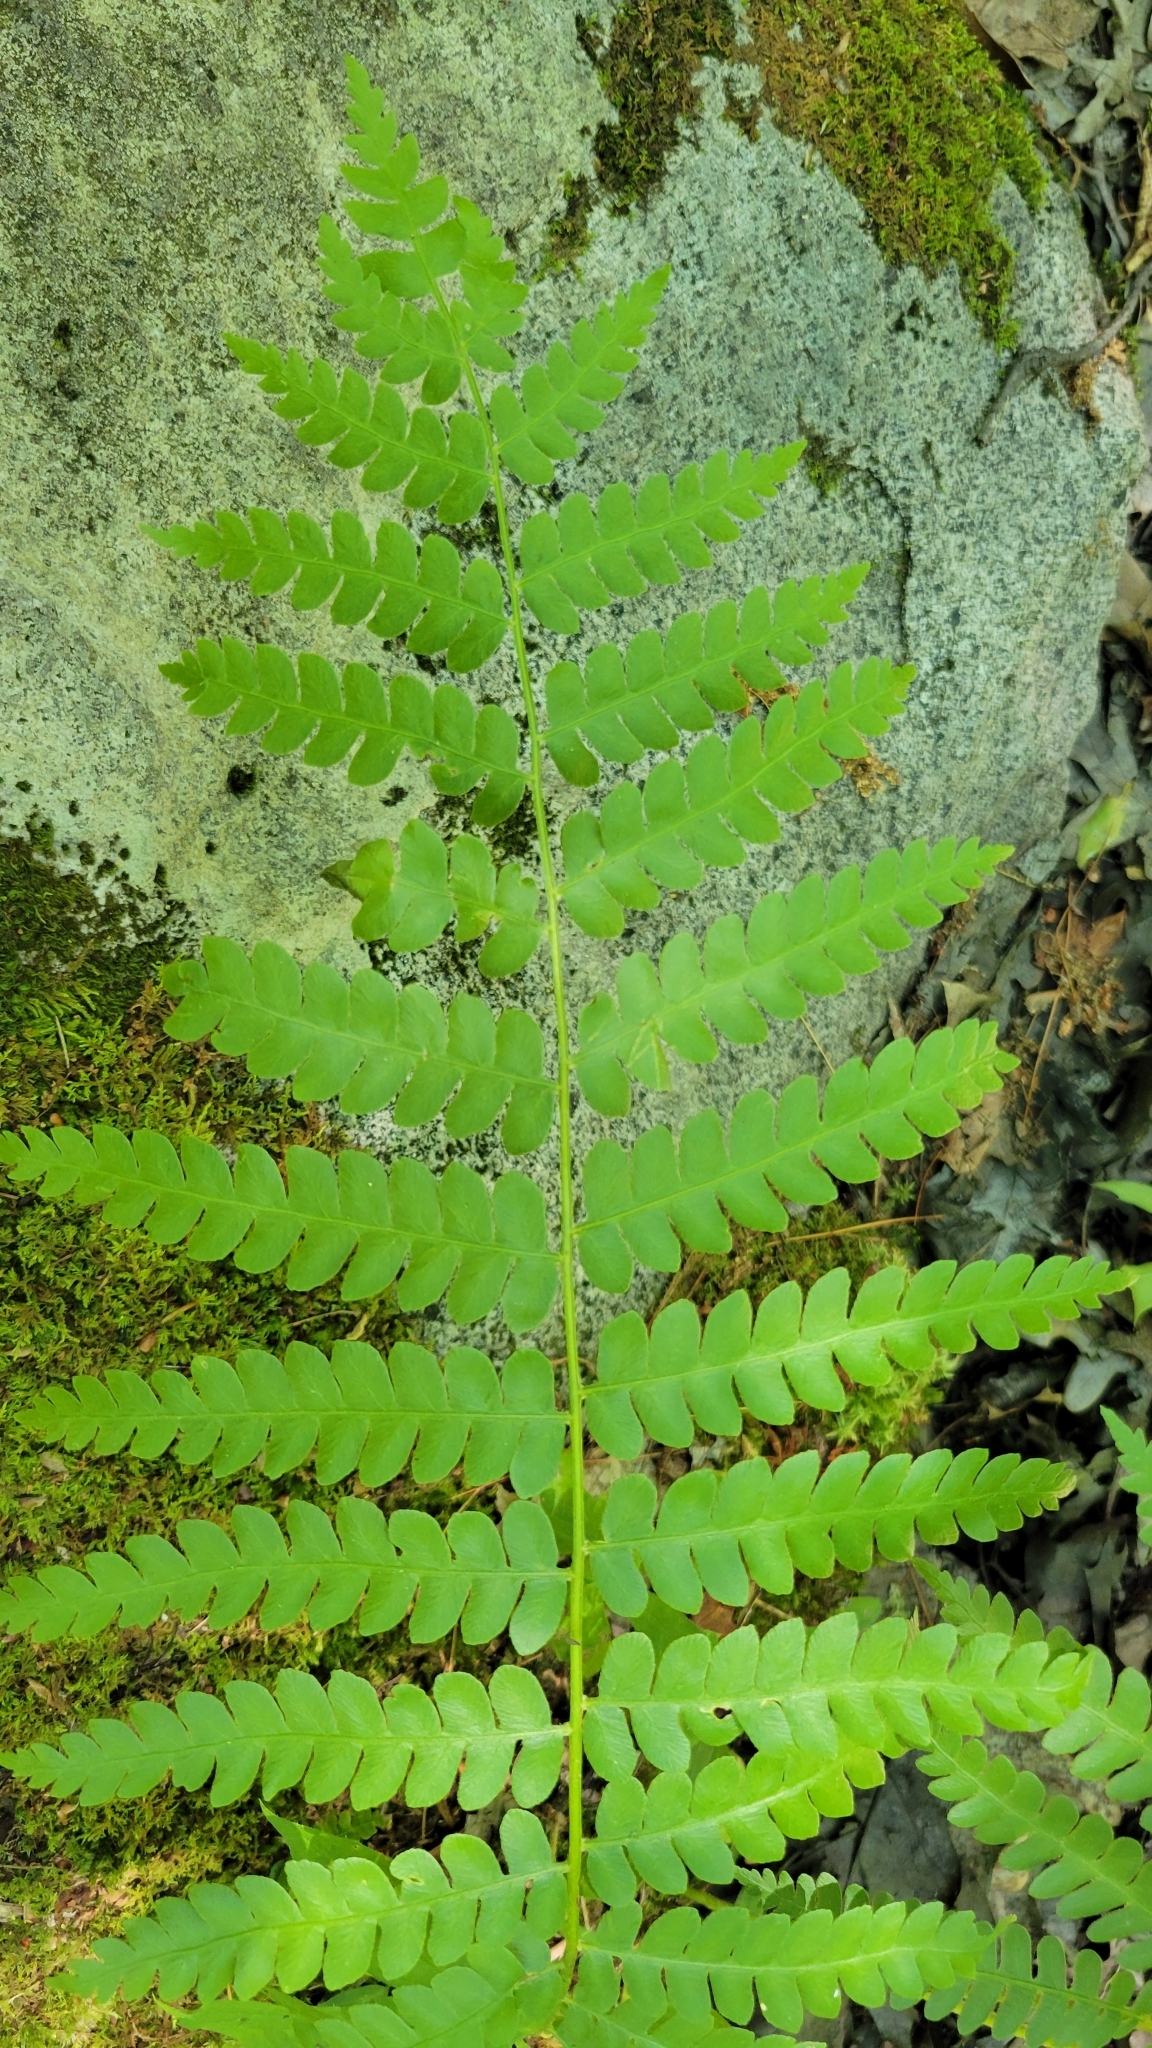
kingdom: Plantae
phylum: Tracheophyta
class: Polypodiopsida
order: Osmundales
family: Osmundaceae
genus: Claytosmunda
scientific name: Claytosmunda claytoniana
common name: Clayton's fern
